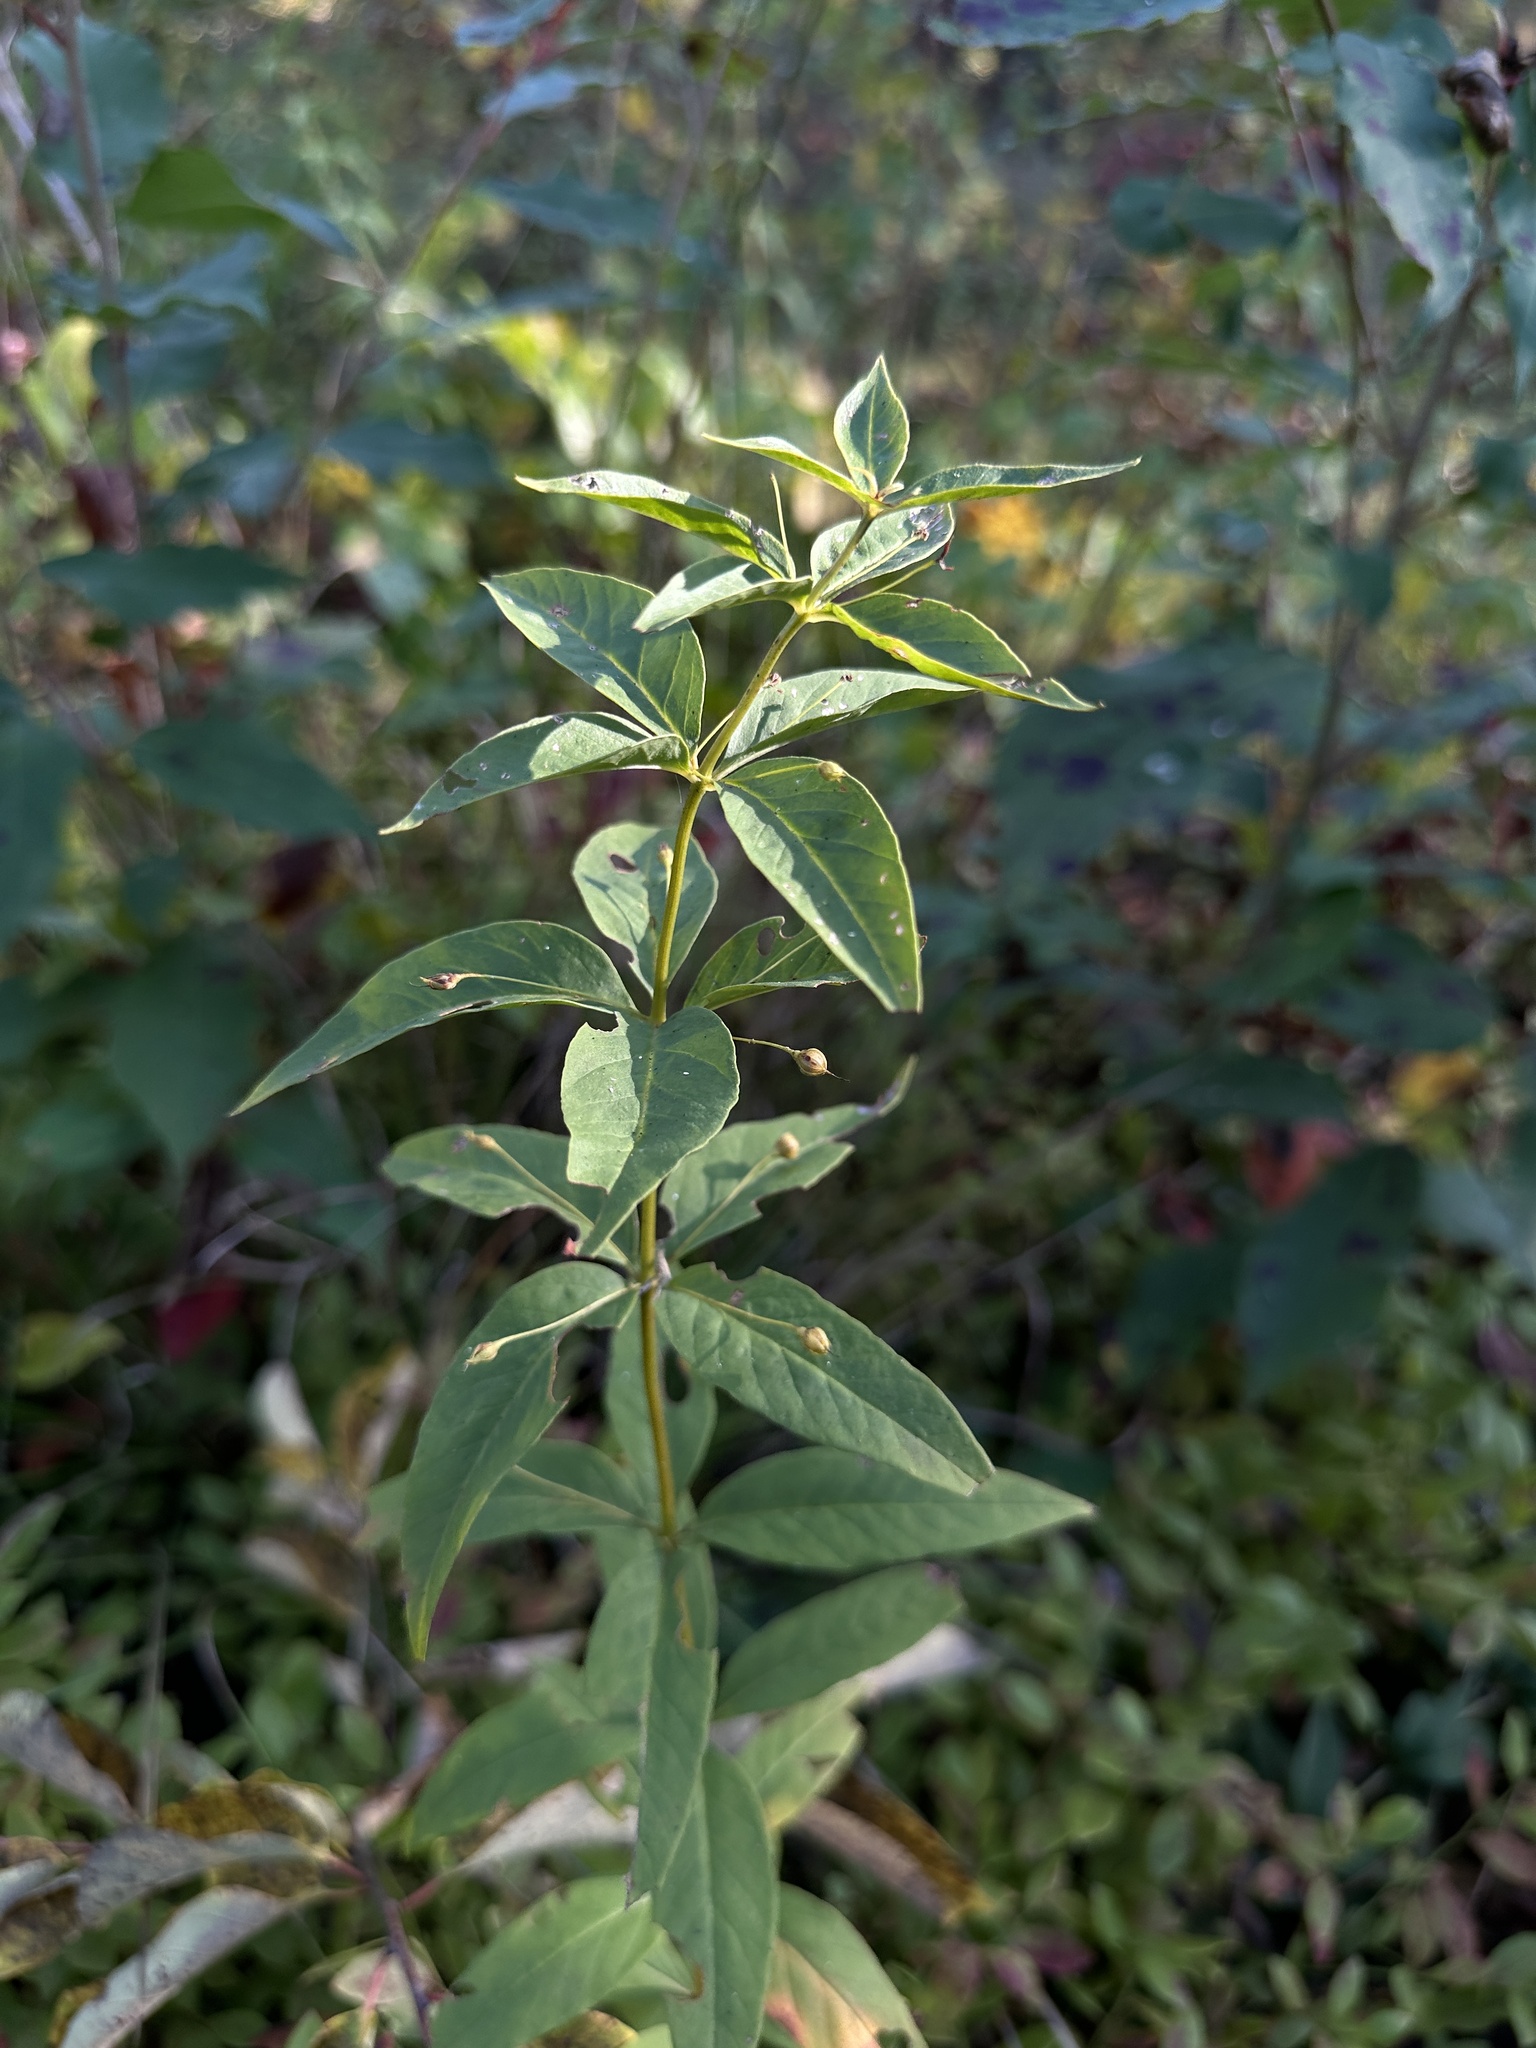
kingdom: Plantae
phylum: Tracheophyta
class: Magnoliopsida
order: Ericales
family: Primulaceae
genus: Lysimachia
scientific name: Lysimachia quadrifolia
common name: Whorled loosestrife
